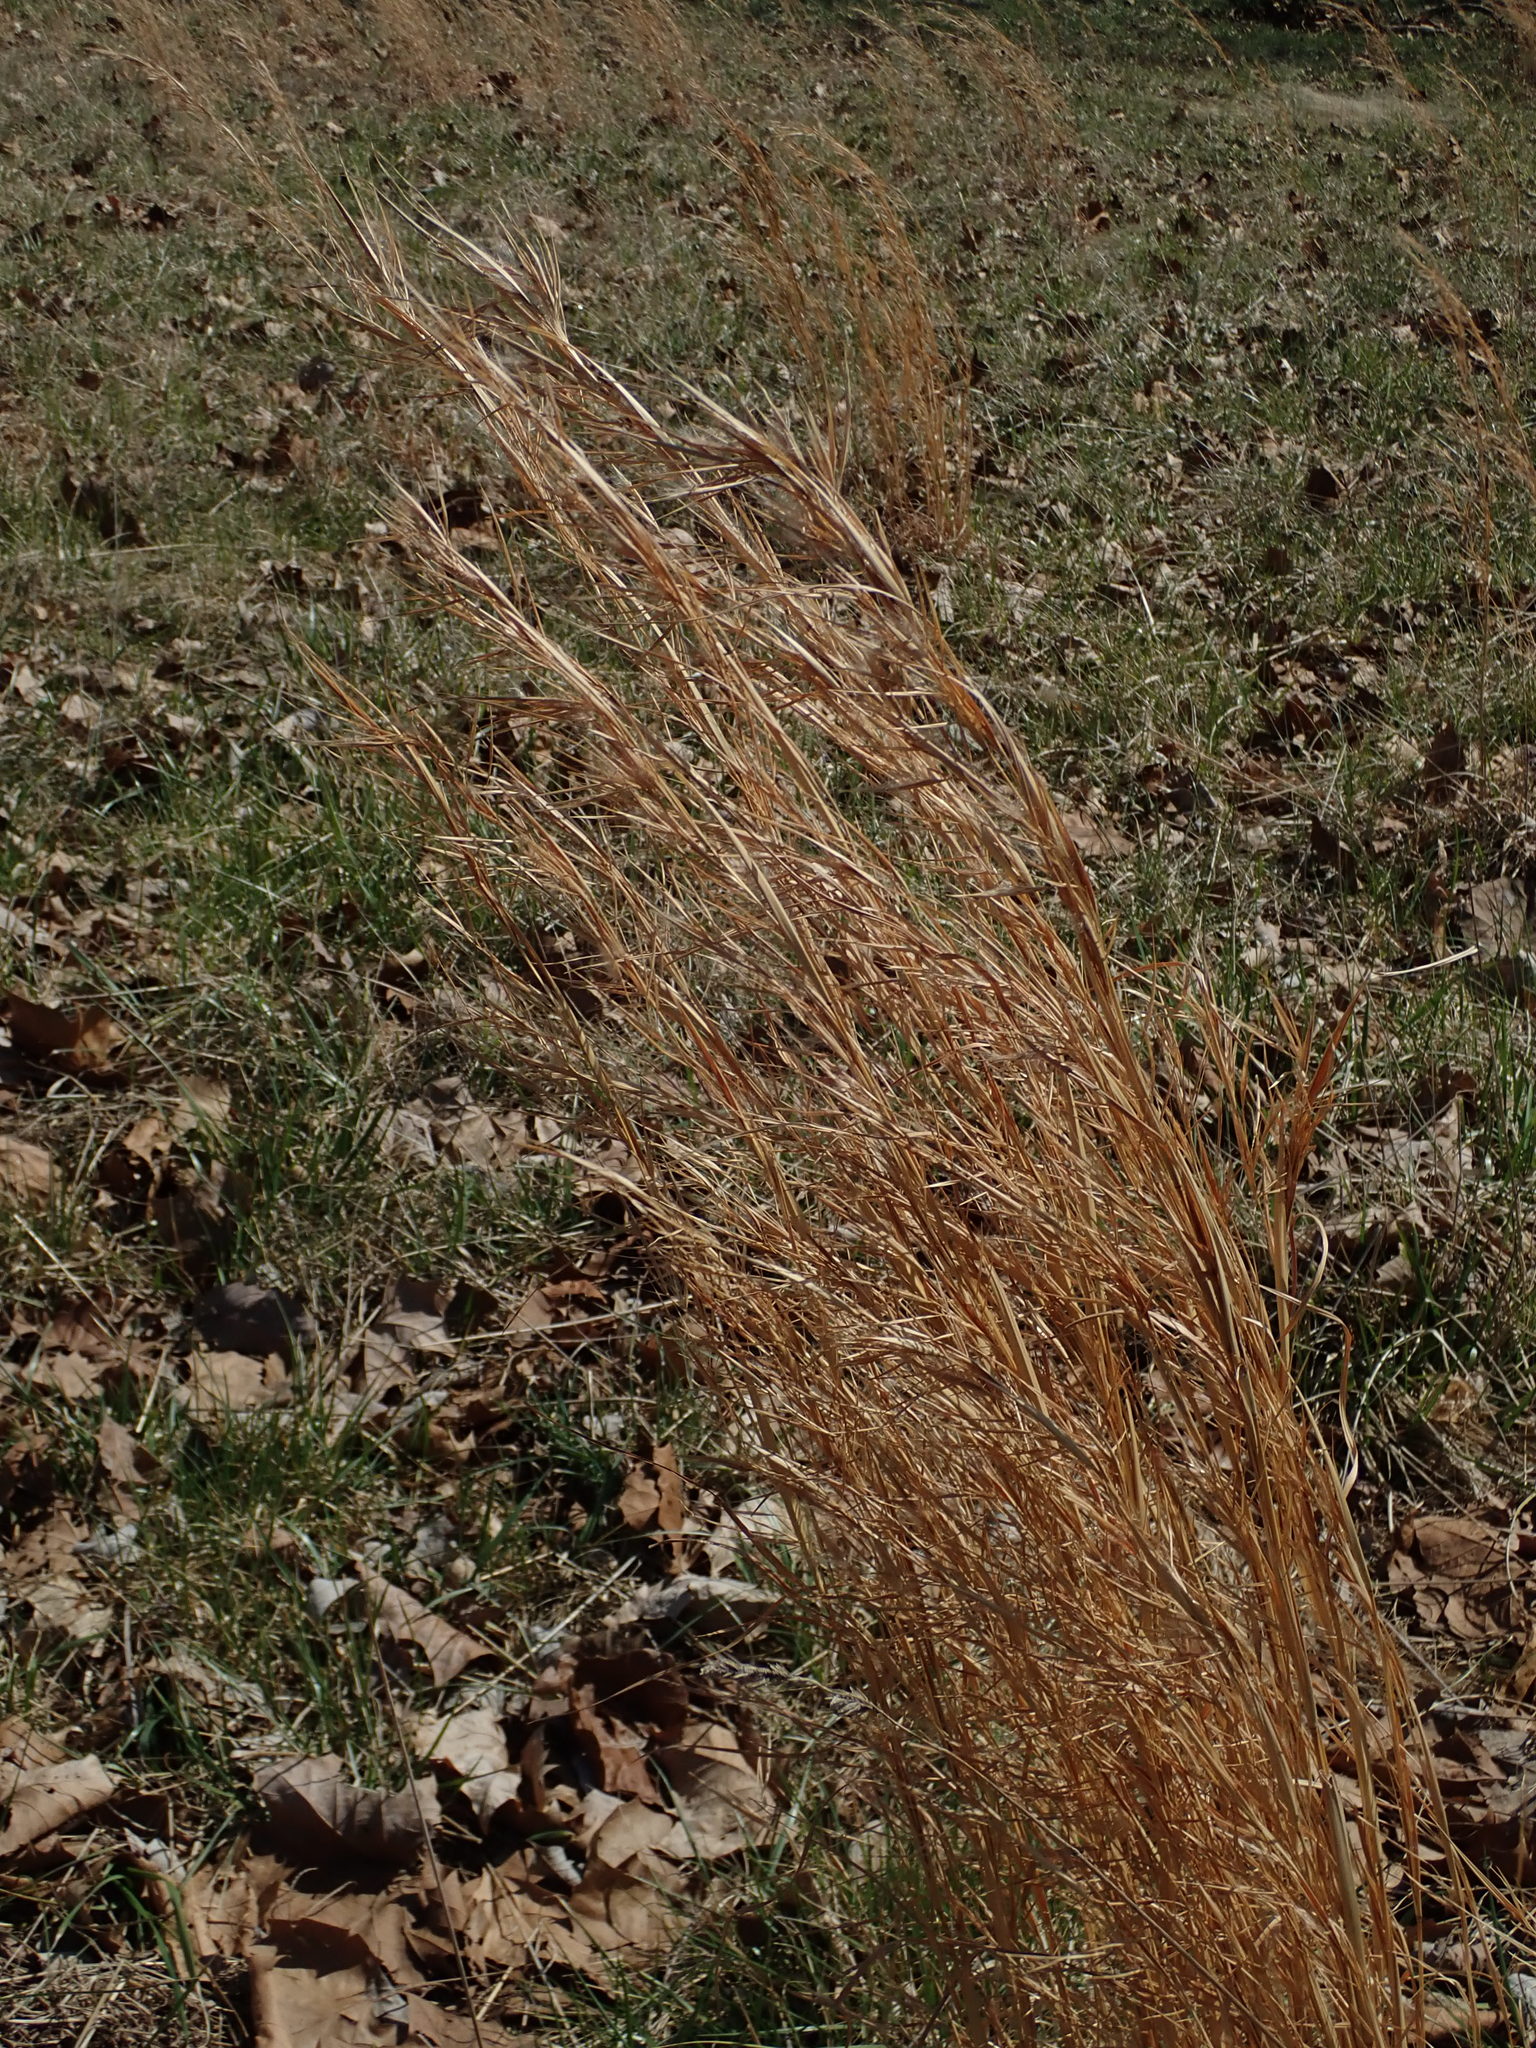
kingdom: Plantae
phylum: Tracheophyta
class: Liliopsida
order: Poales
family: Poaceae
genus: Andropogon
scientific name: Andropogon virginicus
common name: Broomsedge bluestem
